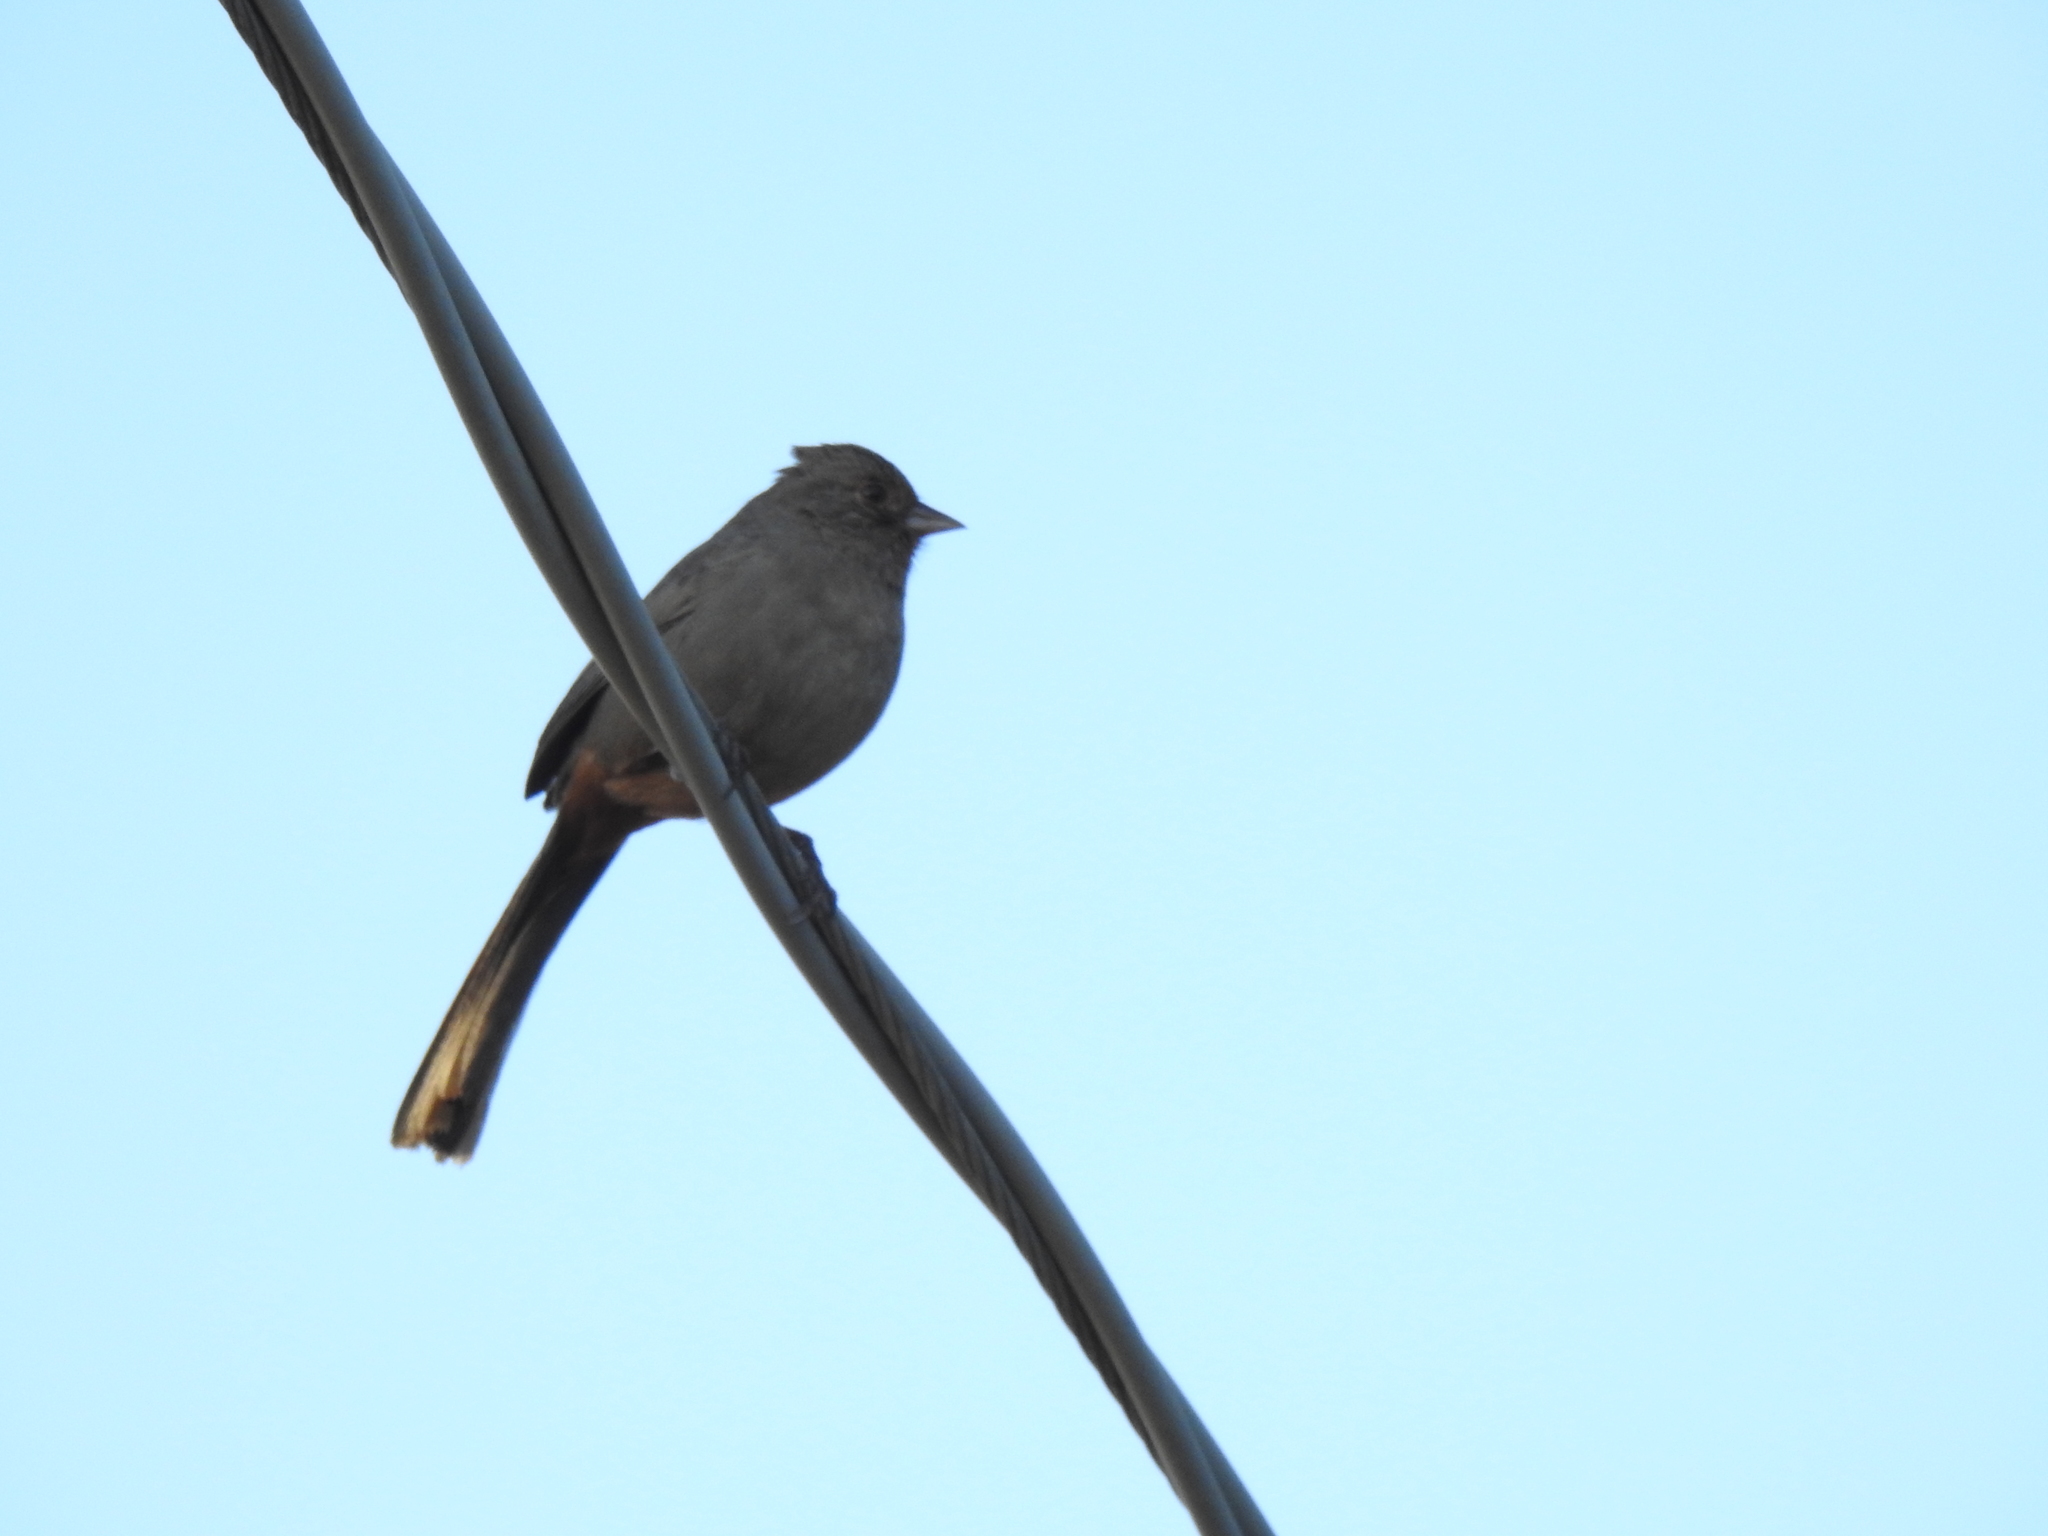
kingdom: Animalia
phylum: Chordata
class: Aves
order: Passeriformes
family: Passerellidae
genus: Melozone
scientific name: Melozone crissalis
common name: California towhee
